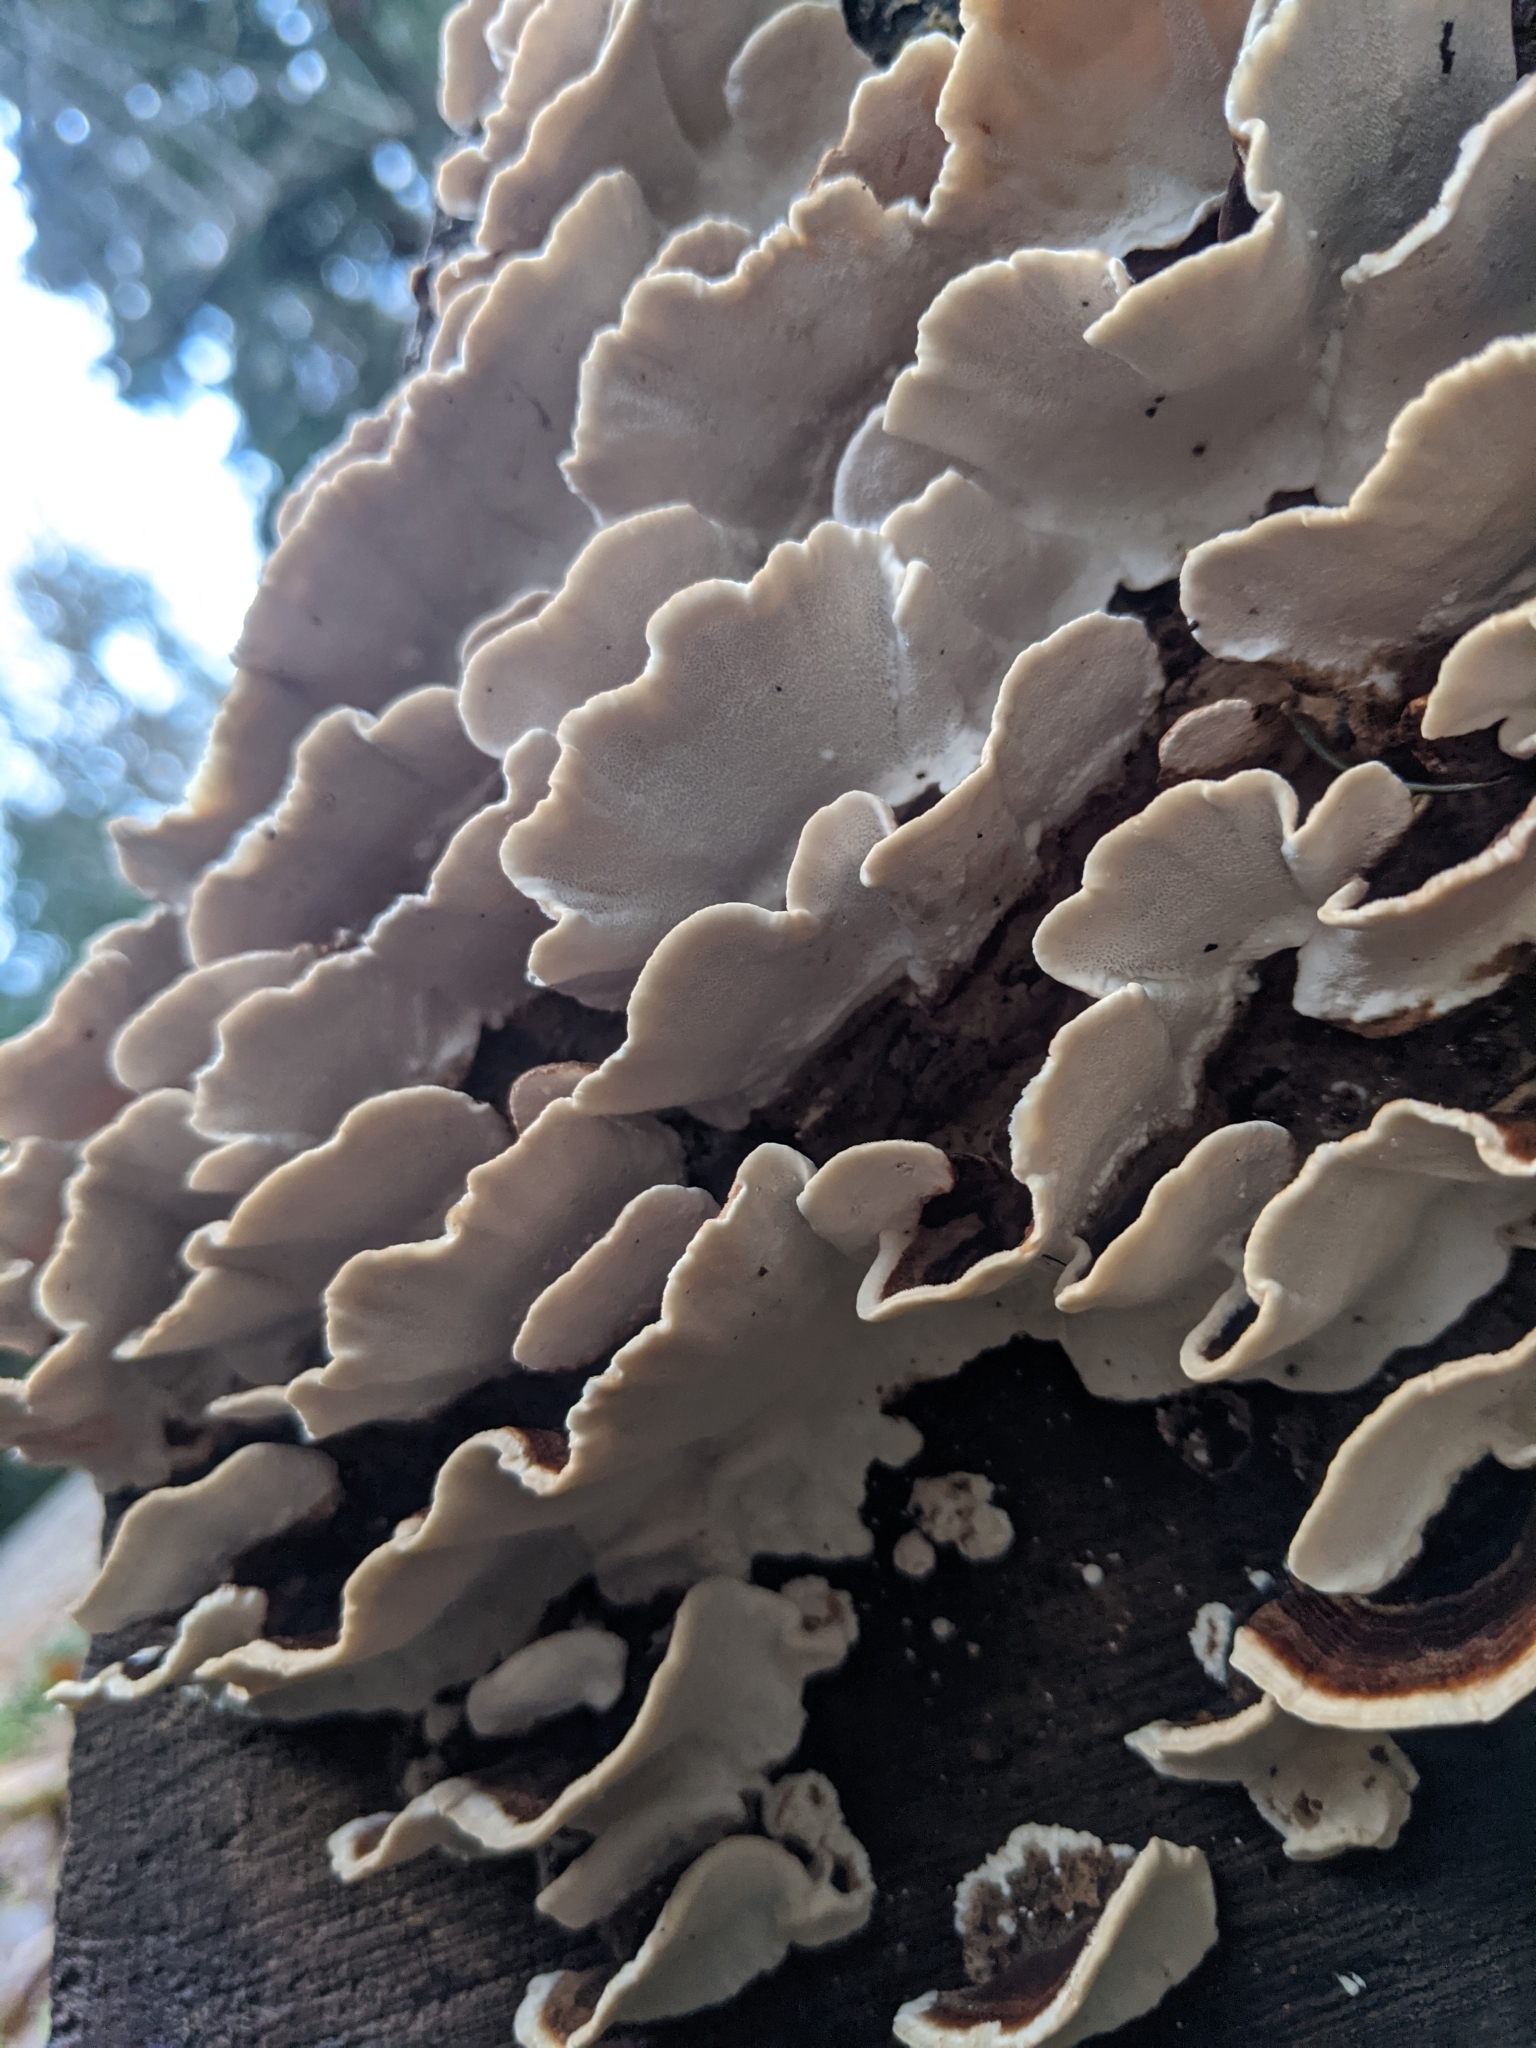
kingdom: Fungi
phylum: Basidiomycota
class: Agaricomycetes
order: Polyporales
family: Polyporaceae
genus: Trametes
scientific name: Trametes versicolor
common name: Turkeytail
